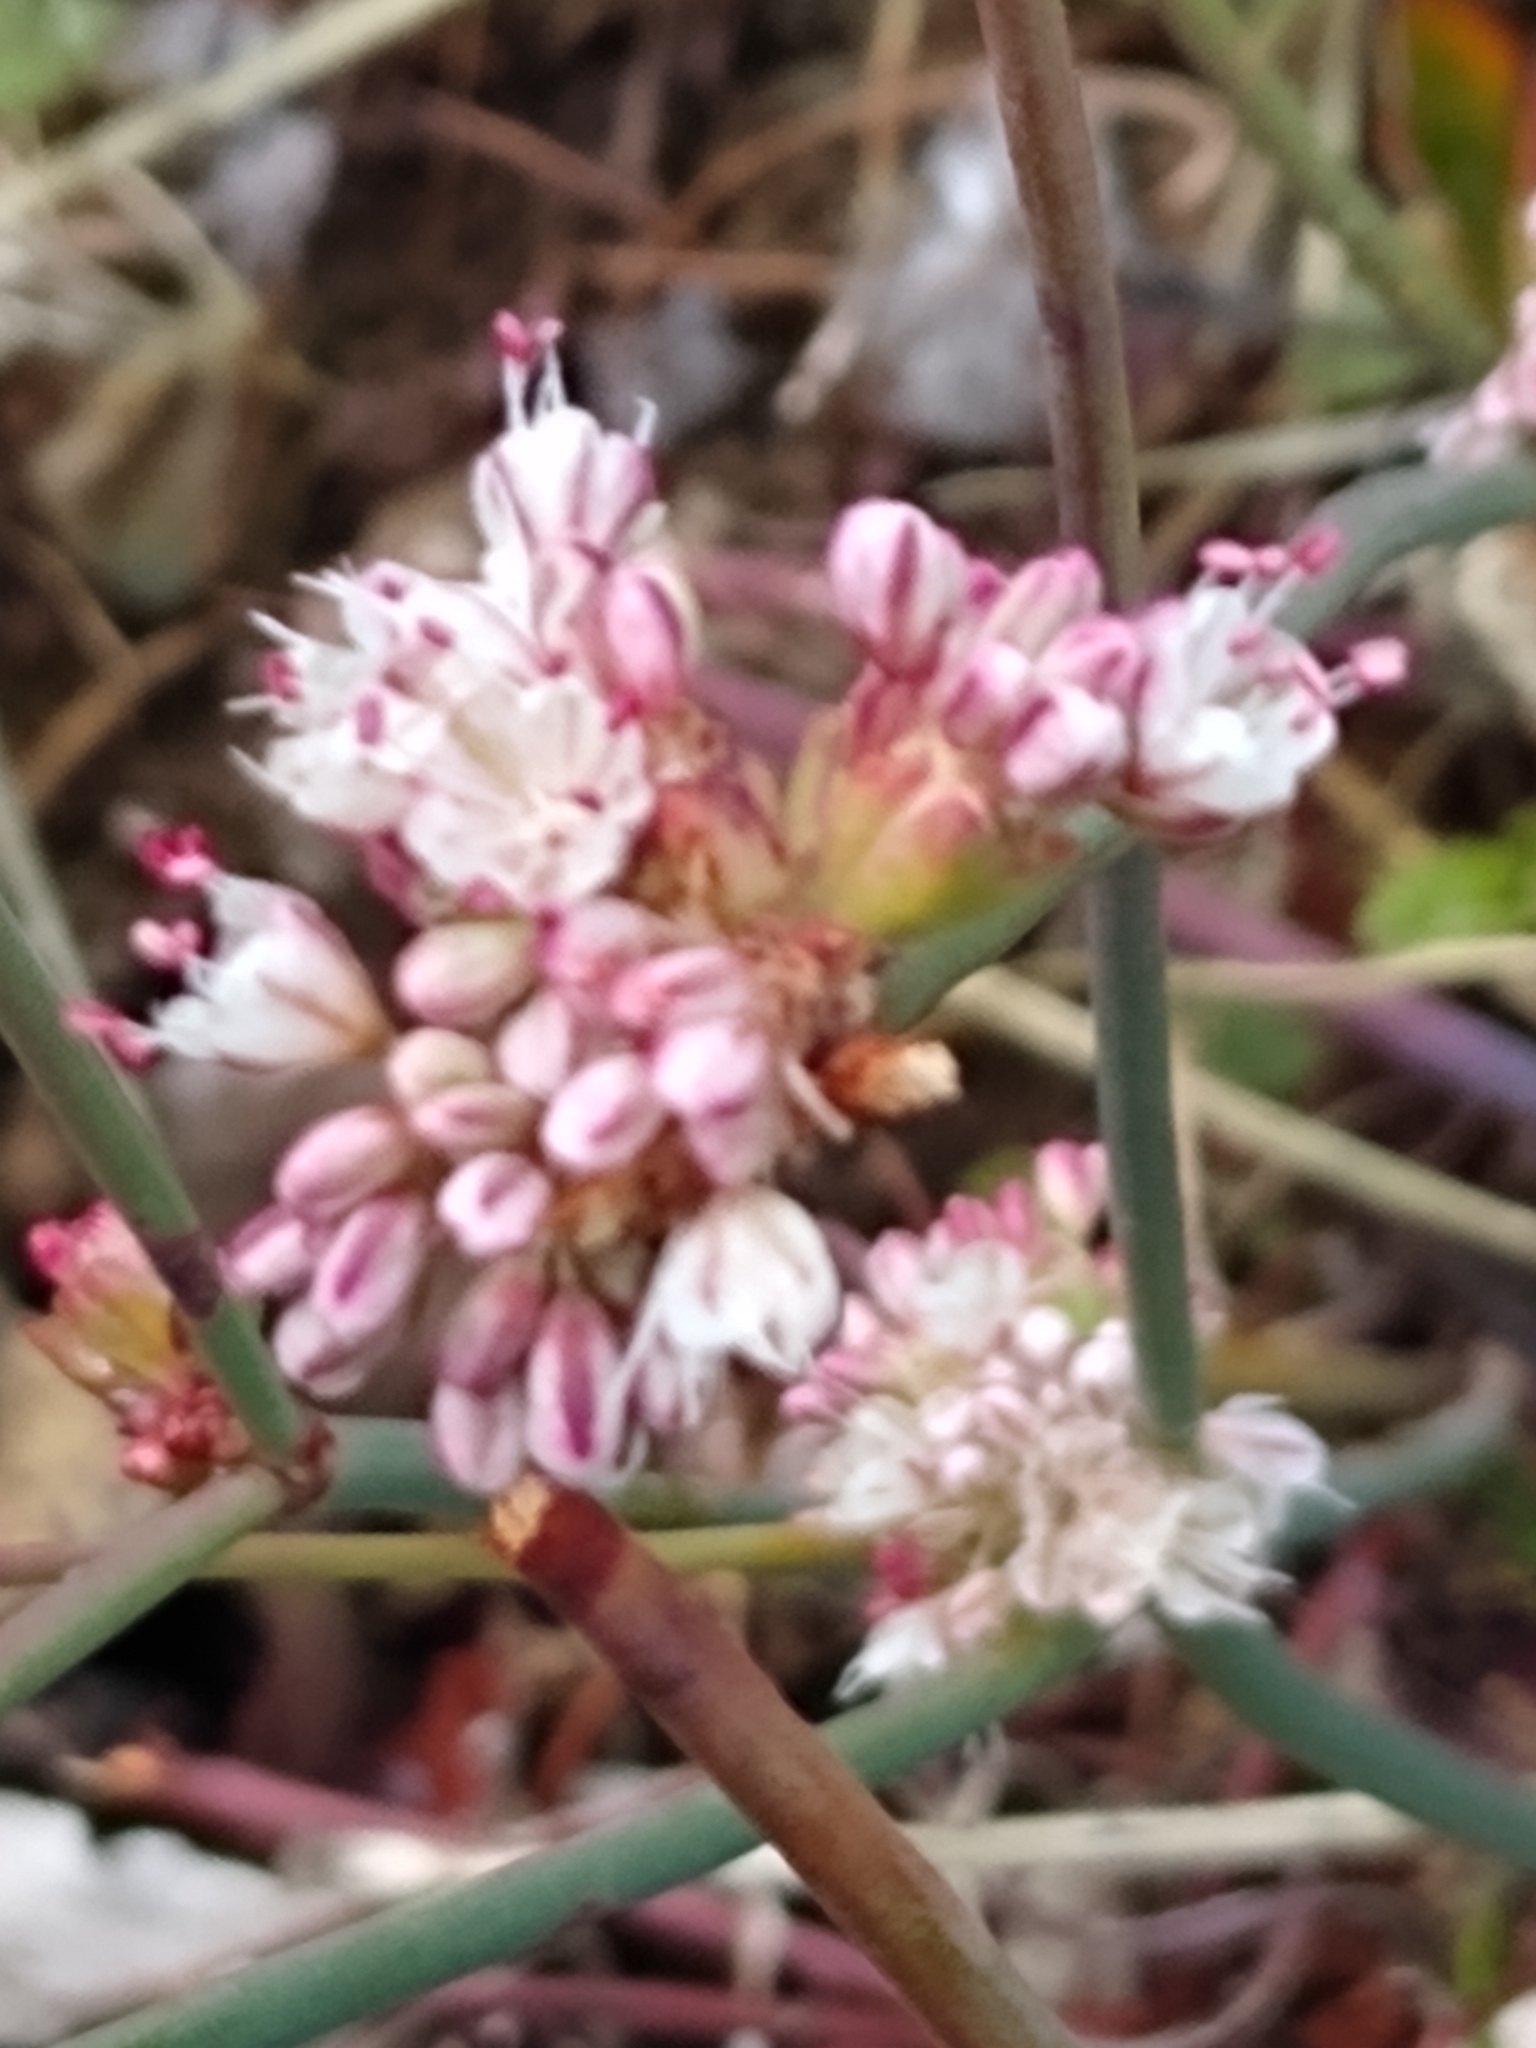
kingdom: Plantae
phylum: Tracheophyta
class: Magnoliopsida
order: Caryophyllales
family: Polygonaceae
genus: Eriogonum
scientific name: Eriogonum nudum
